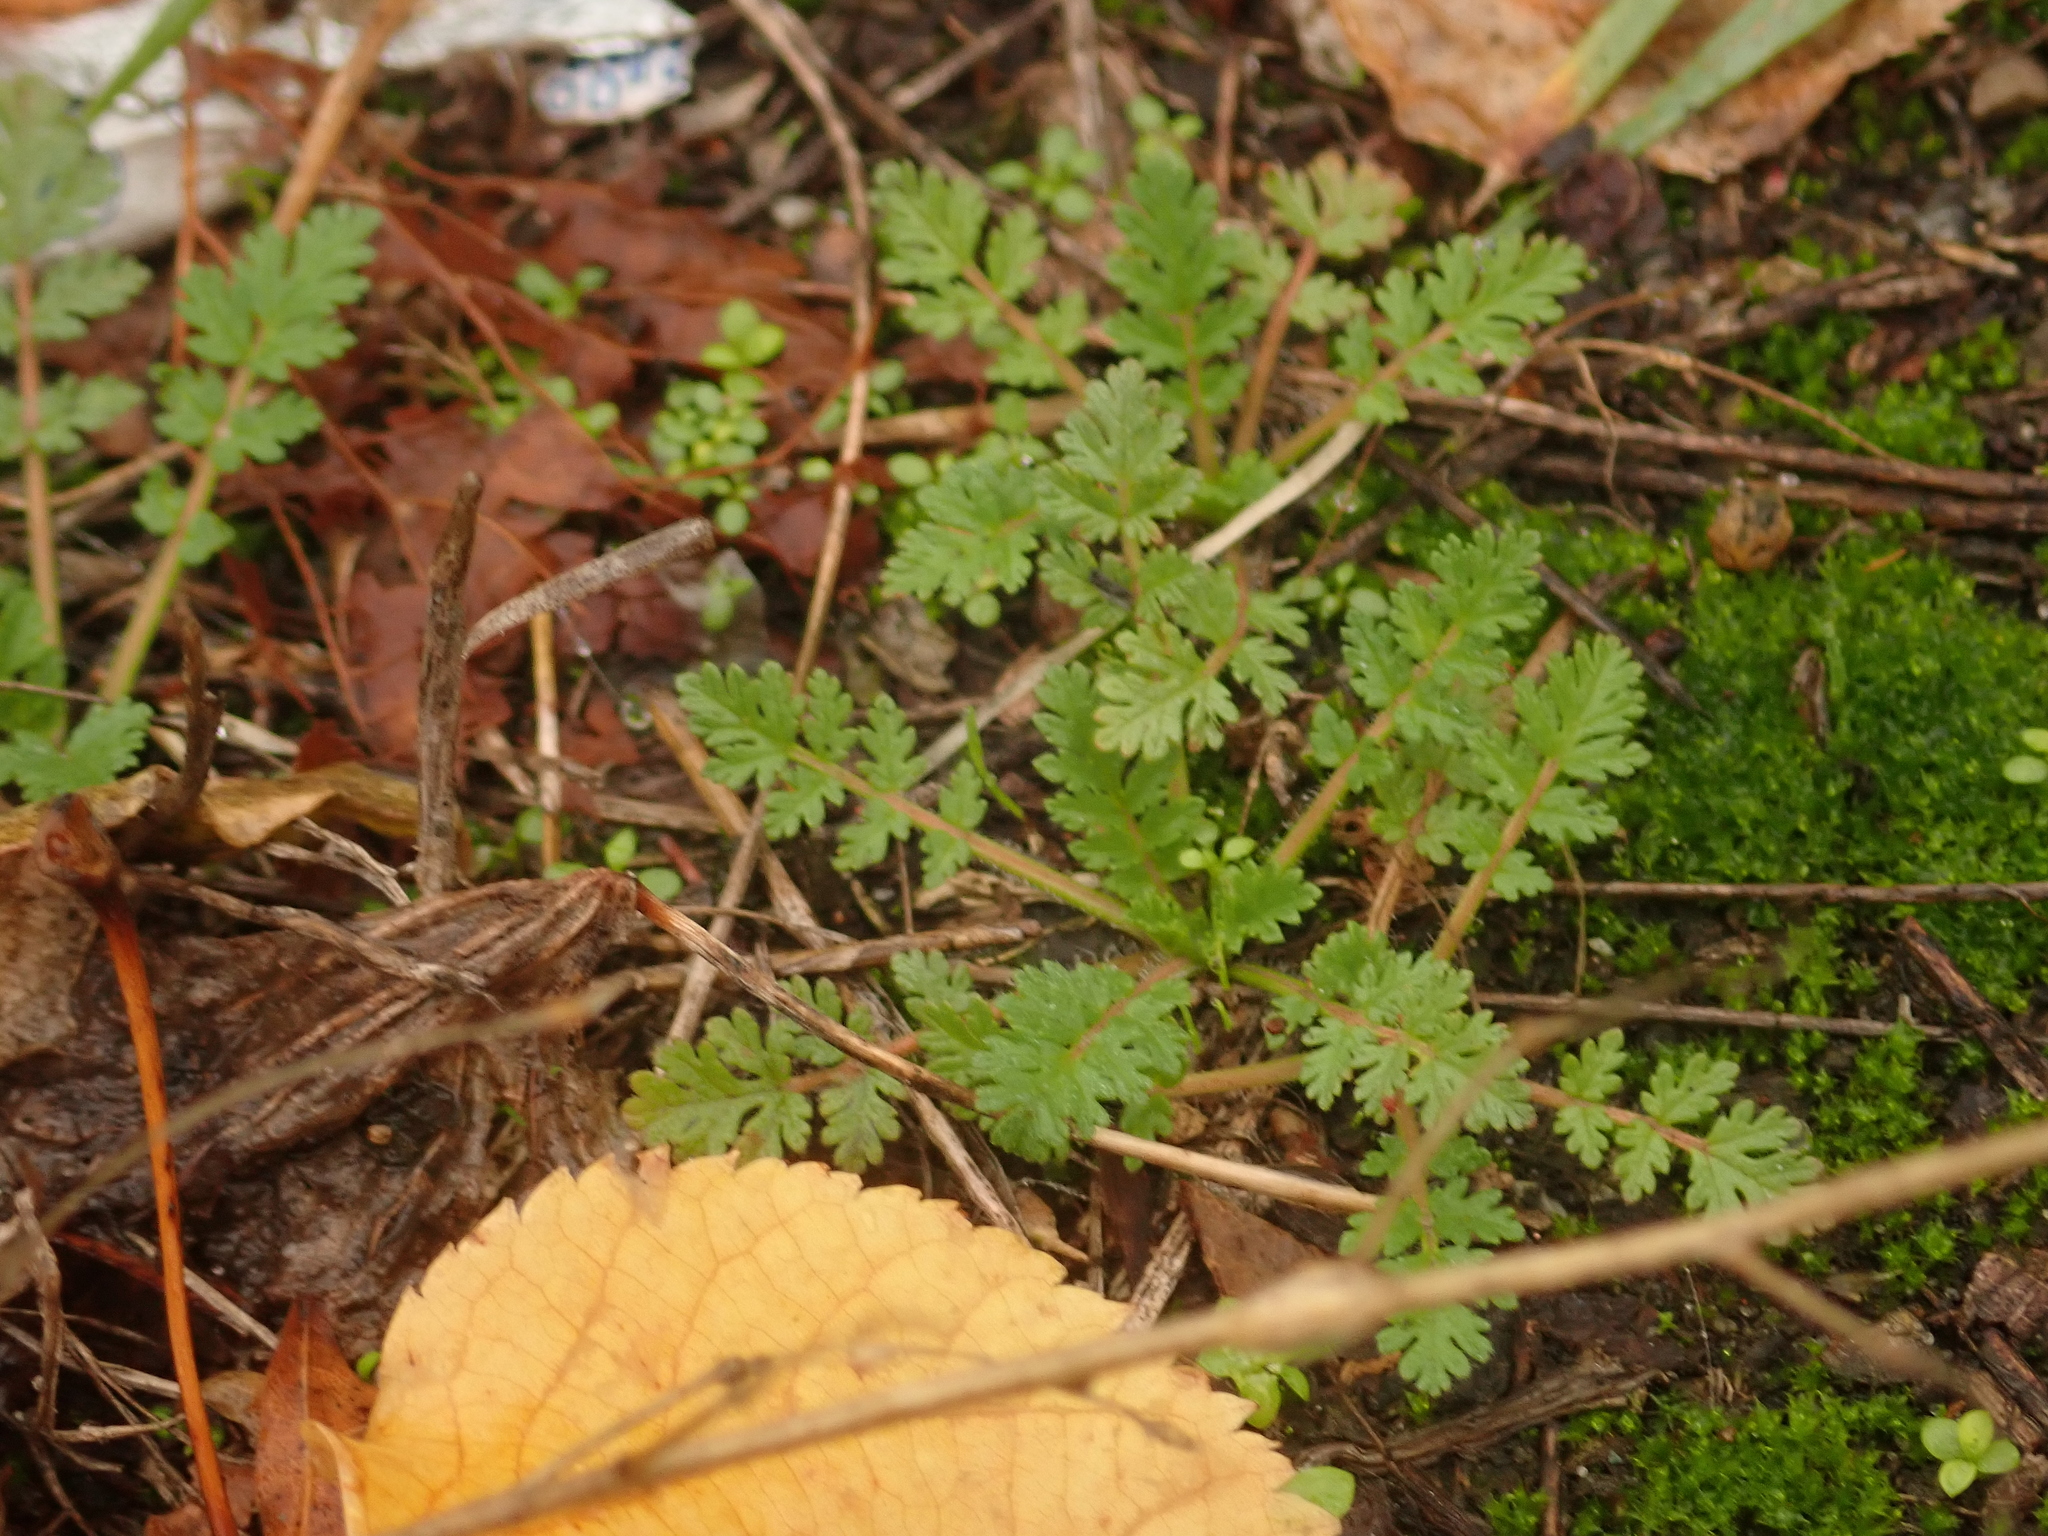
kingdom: Plantae
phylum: Tracheophyta
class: Magnoliopsida
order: Geraniales
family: Geraniaceae
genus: Erodium
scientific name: Erodium cicutarium
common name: Common stork's-bill
